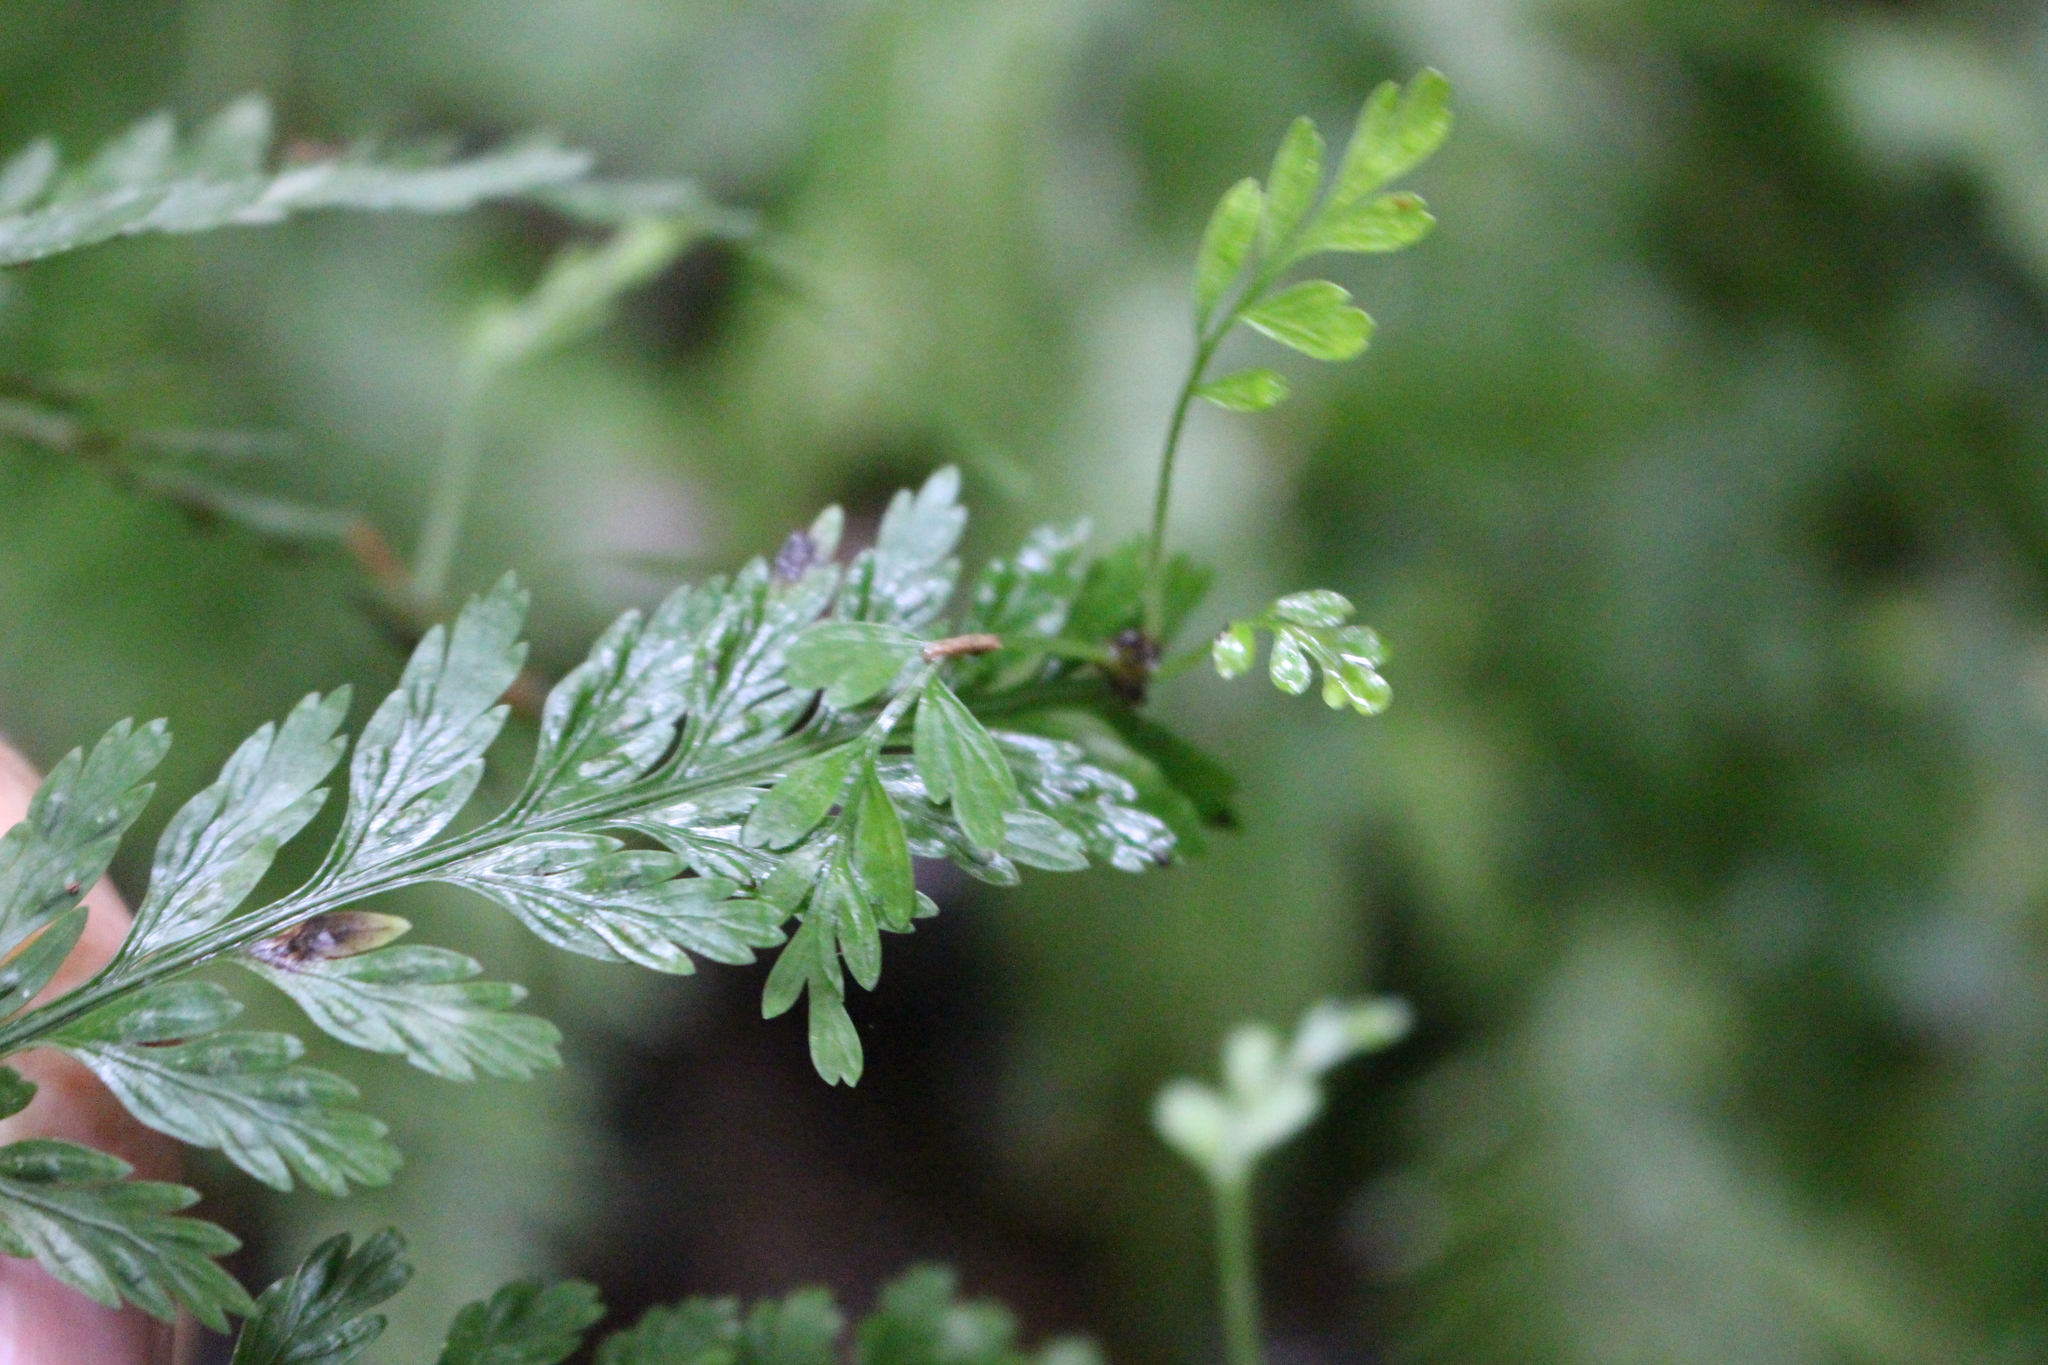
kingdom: Plantae
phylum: Tracheophyta
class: Polypodiopsida
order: Polypodiales
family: Aspleniaceae
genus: Asplenium
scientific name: Asplenium
